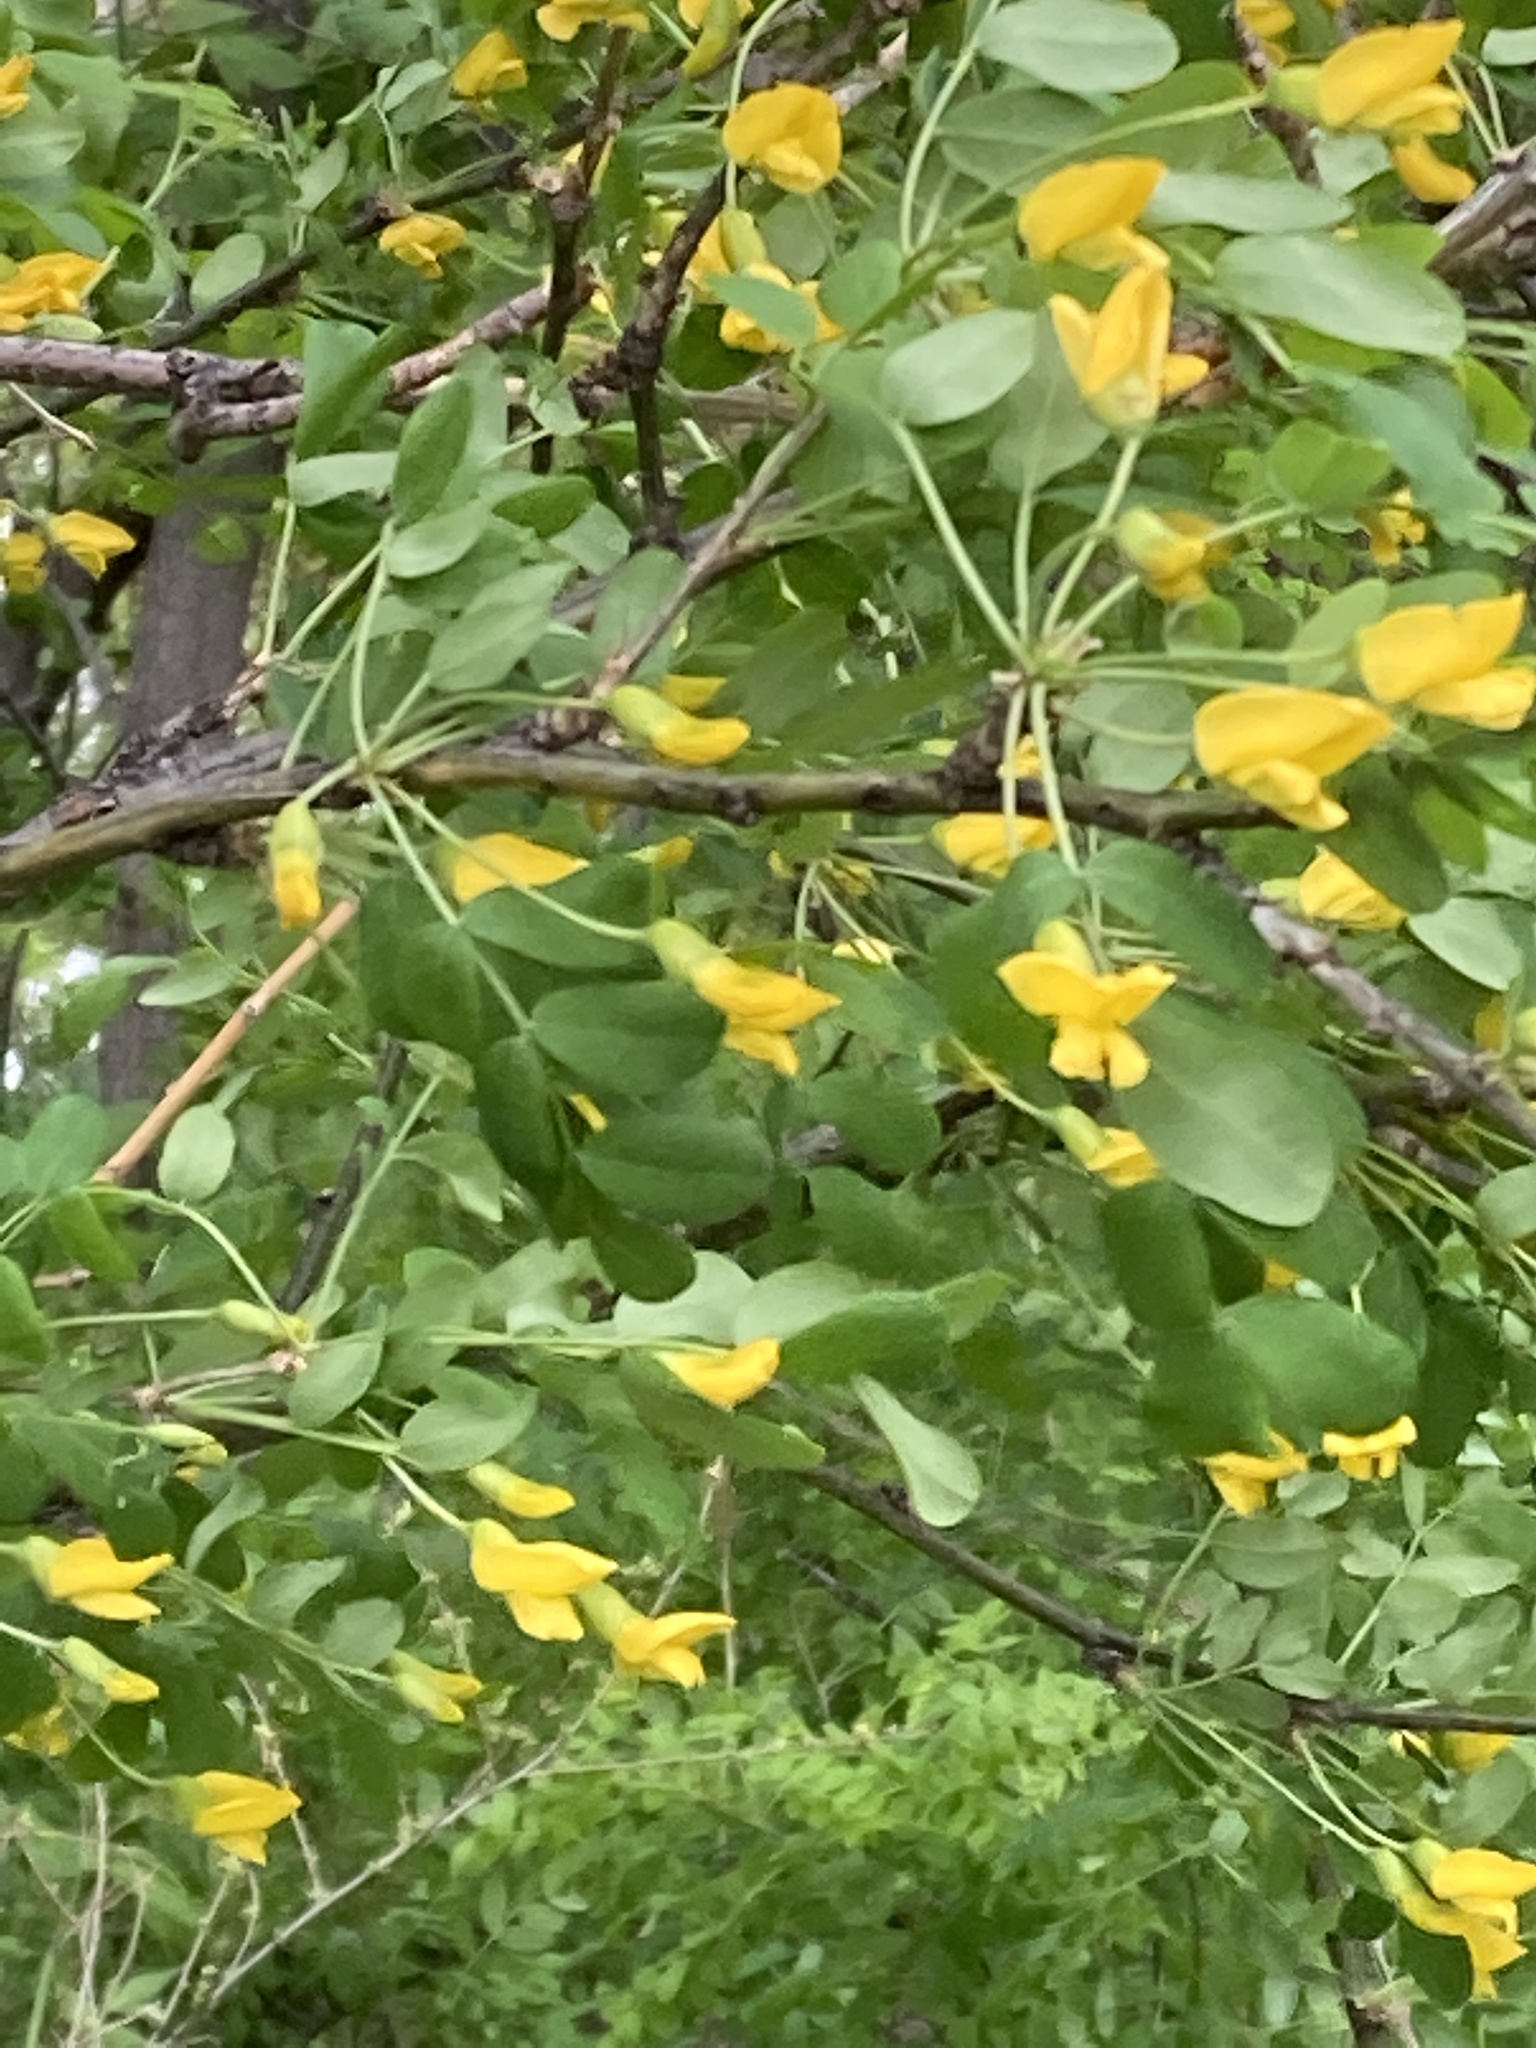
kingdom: Plantae
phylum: Tracheophyta
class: Magnoliopsida
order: Fabales
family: Fabaceae
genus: Caragana
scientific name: Caragana arborescens
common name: Siberian peashrub
